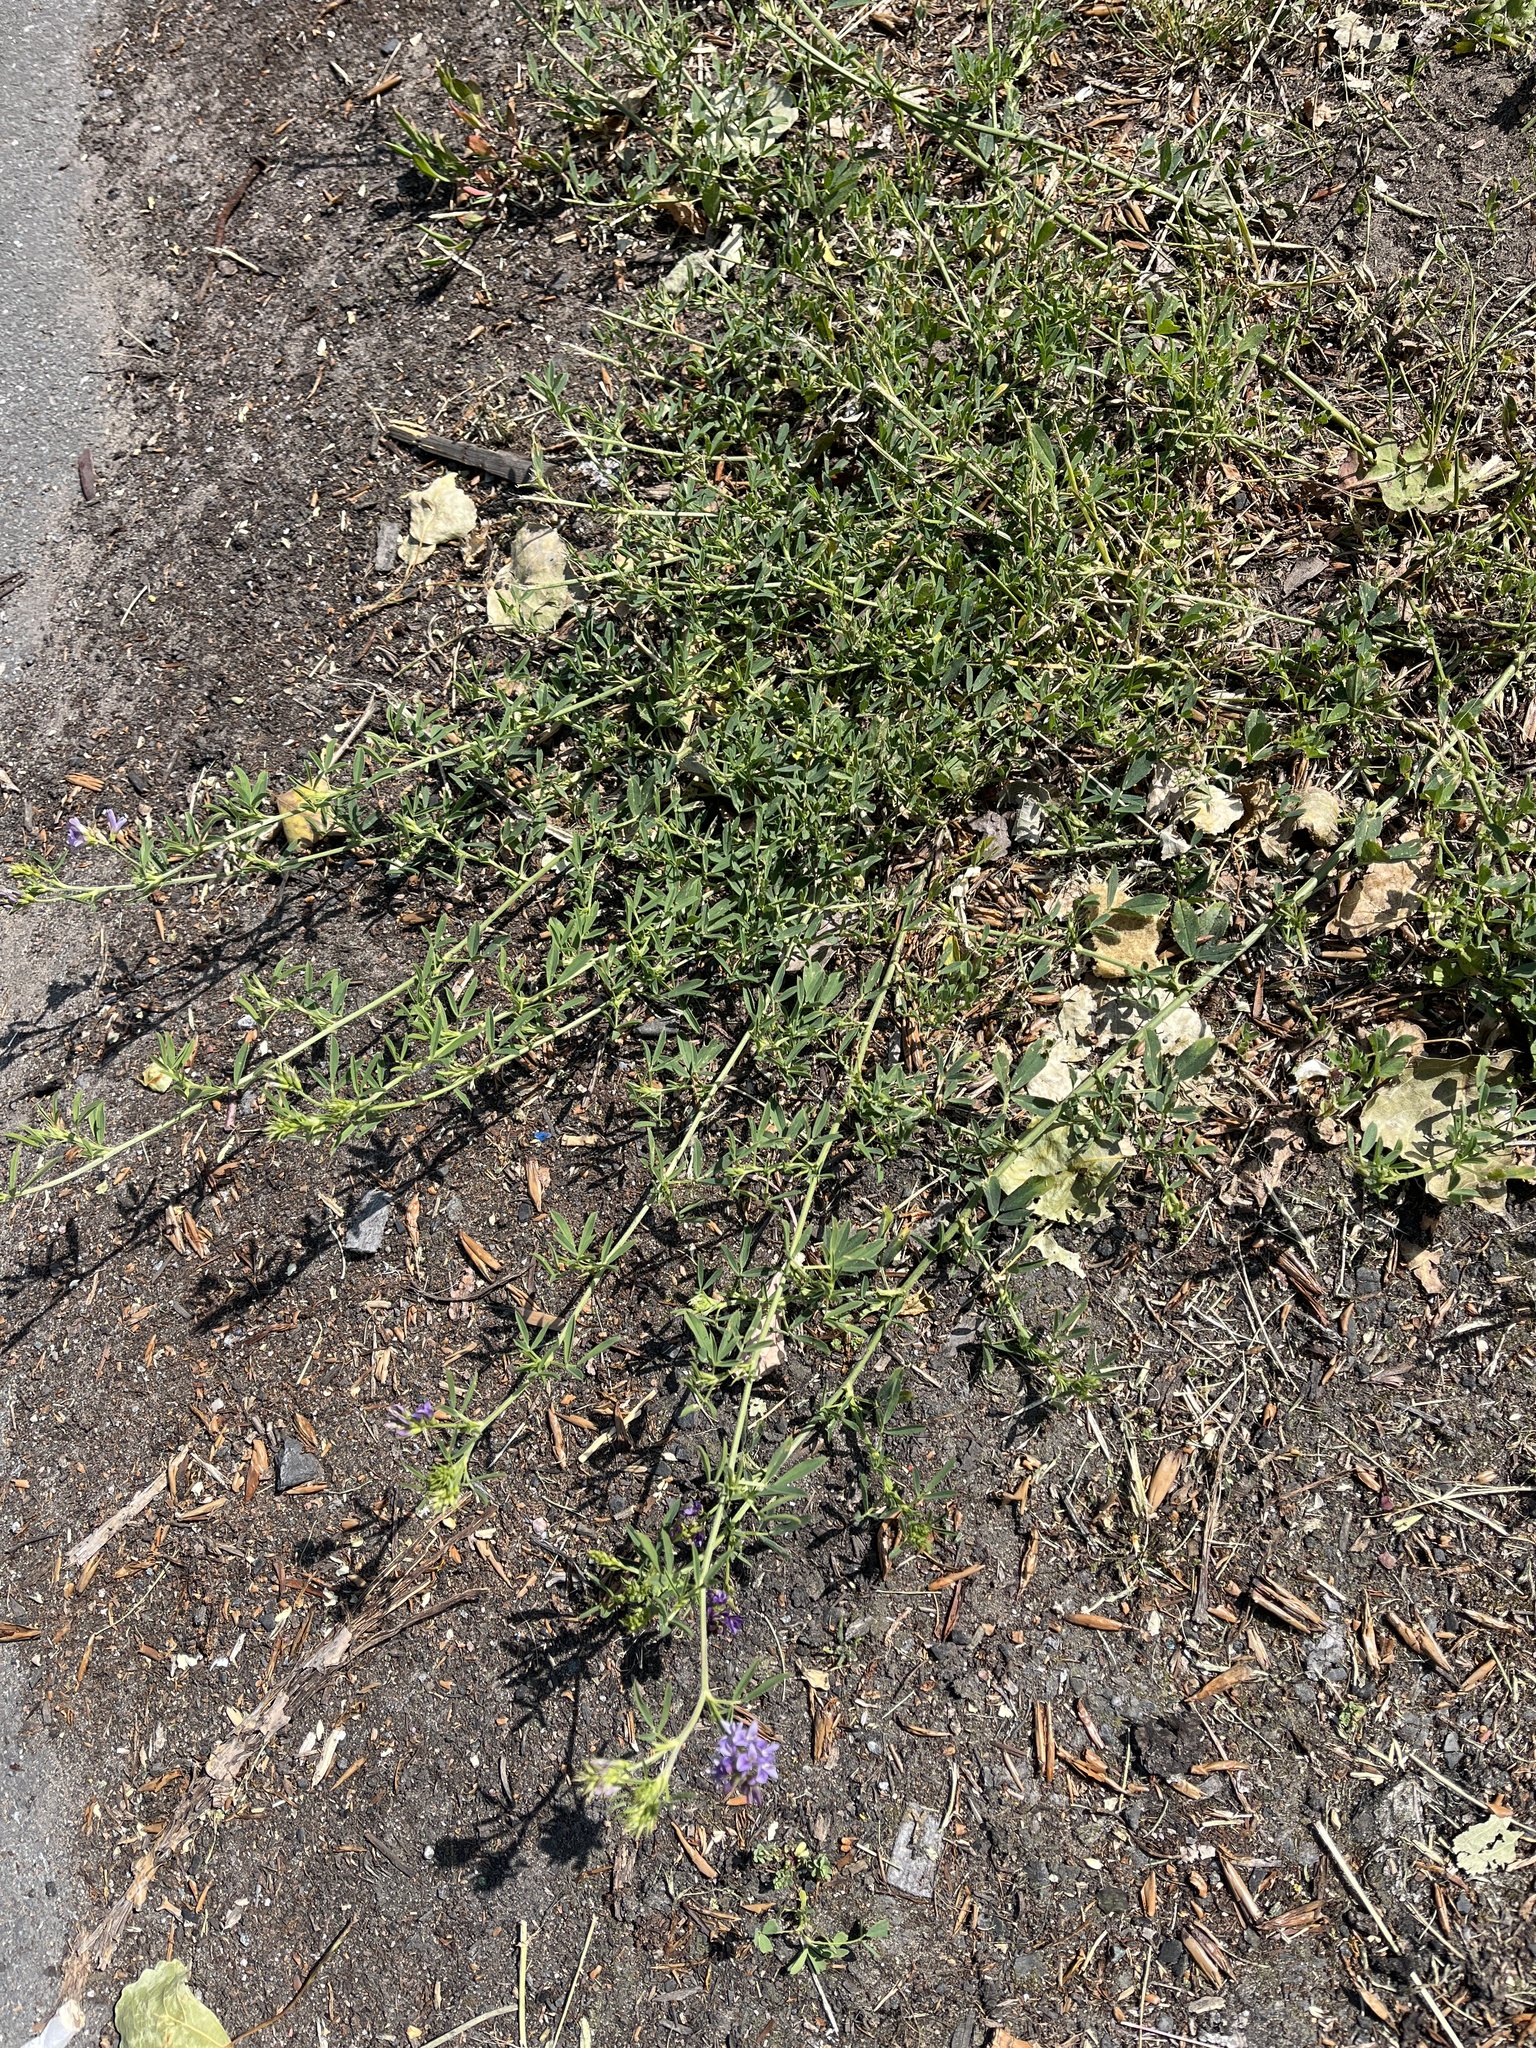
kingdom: Plantae
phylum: Tracheophyta
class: Magnoliopsida
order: Fabales
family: Fabaceae
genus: Medicago
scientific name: Medicago sativa
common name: Alfalfa
